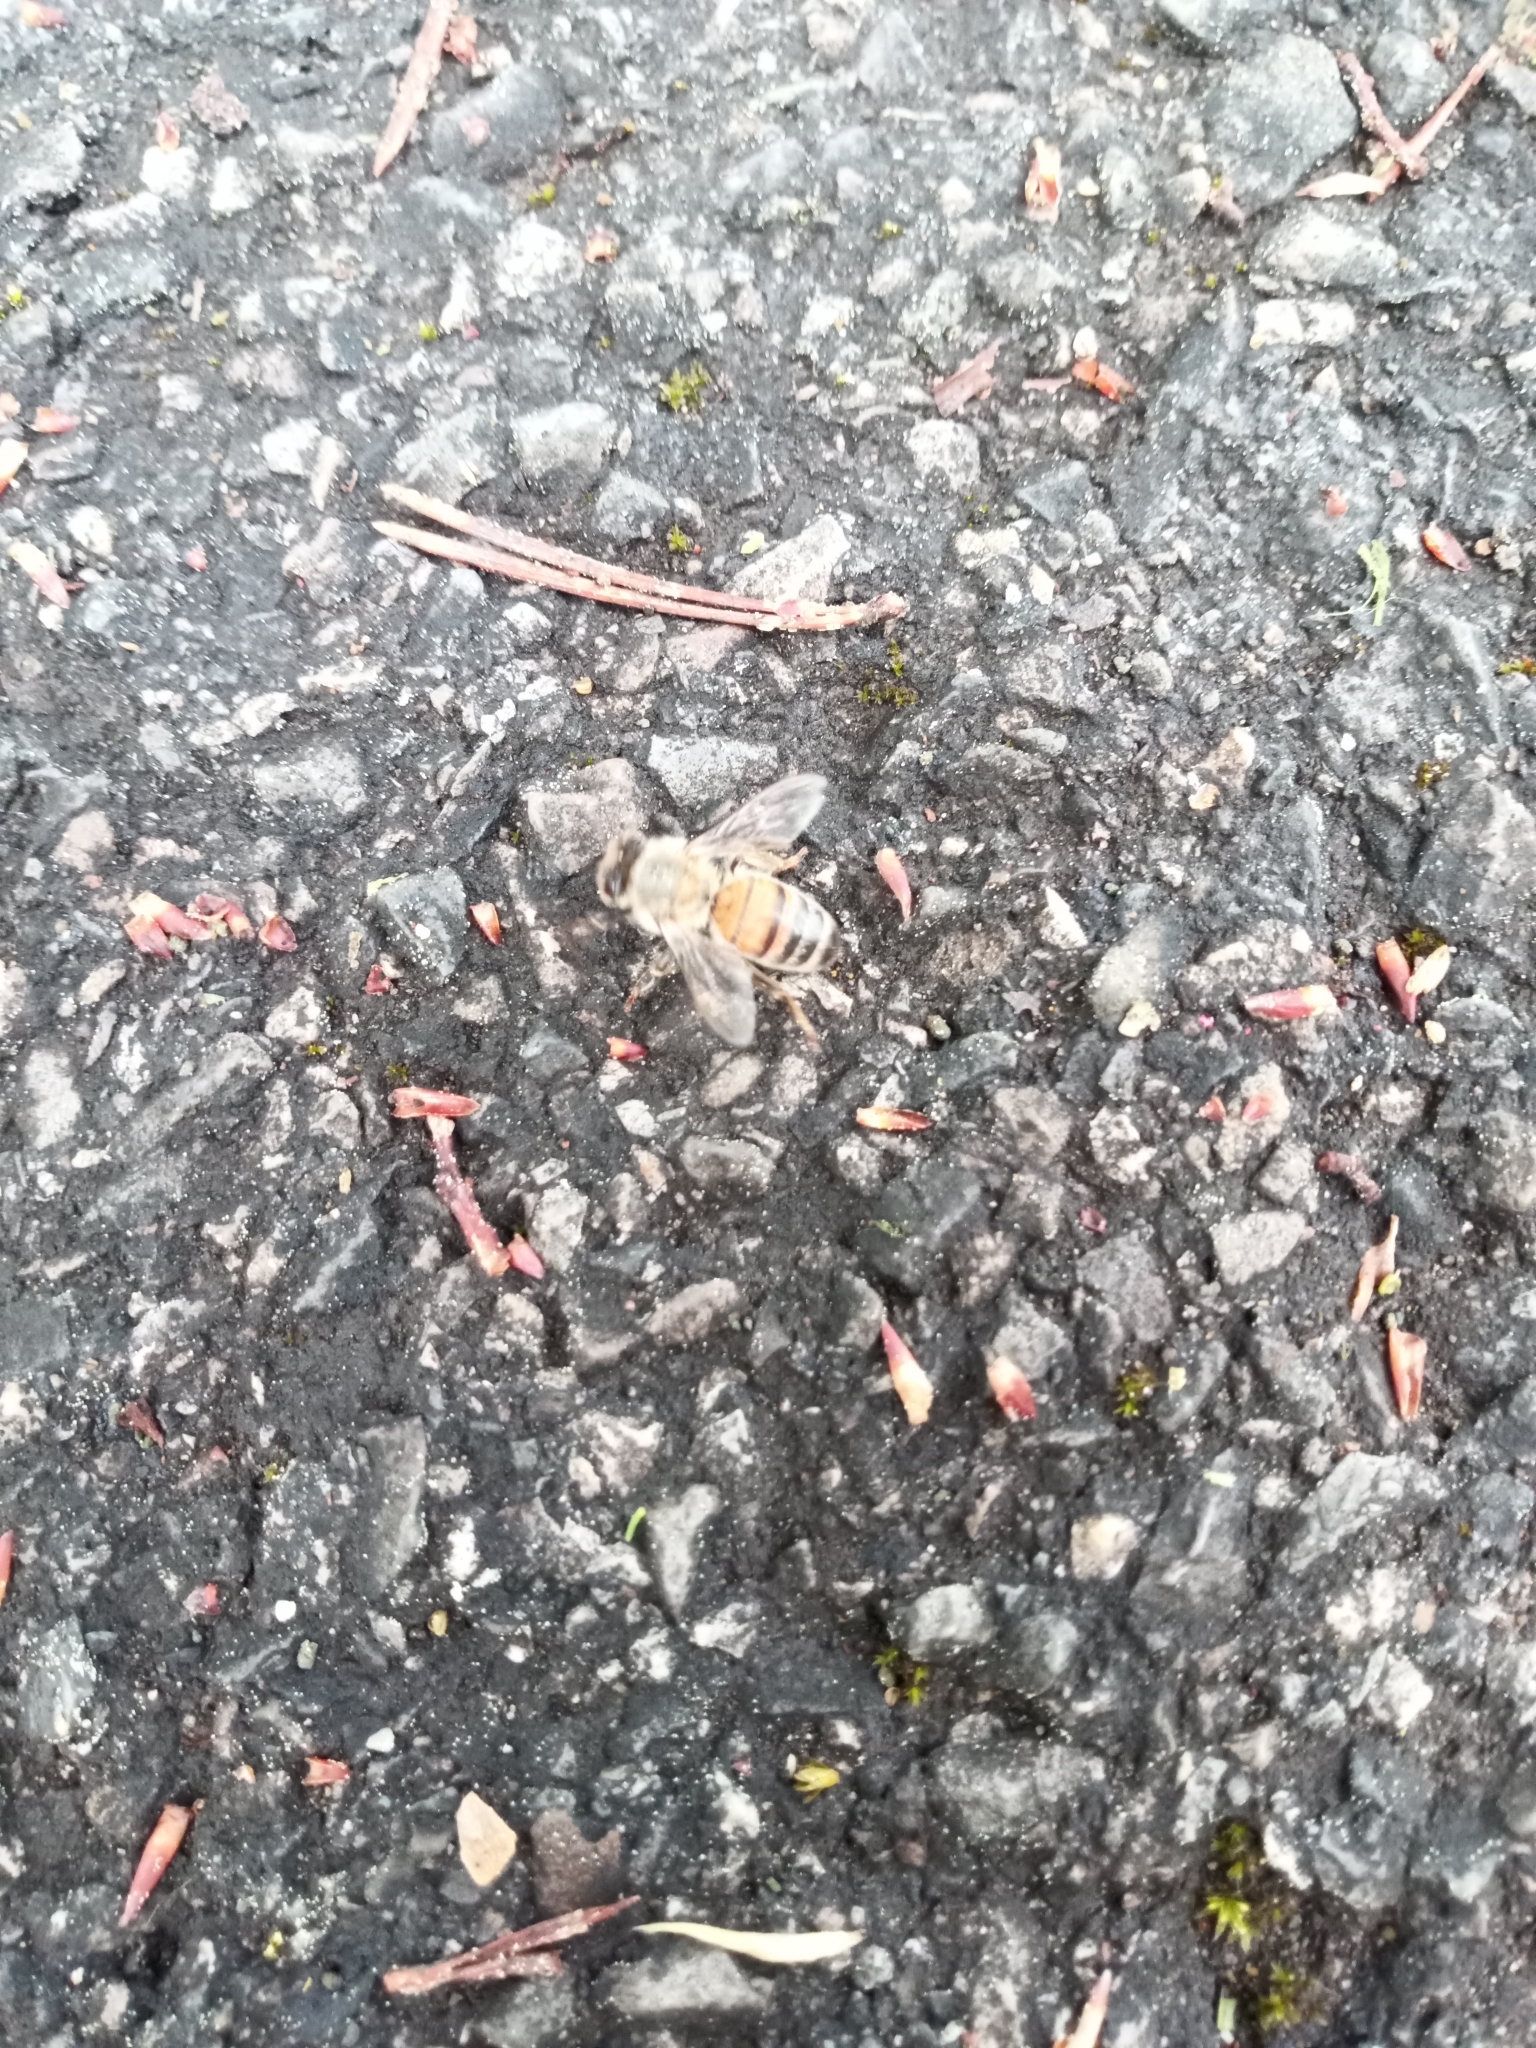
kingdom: Animalia
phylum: Arthropoda
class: Insecta
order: Hymenoptera
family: Apidae
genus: Apis
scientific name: Apis mellifera
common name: Honey bee
